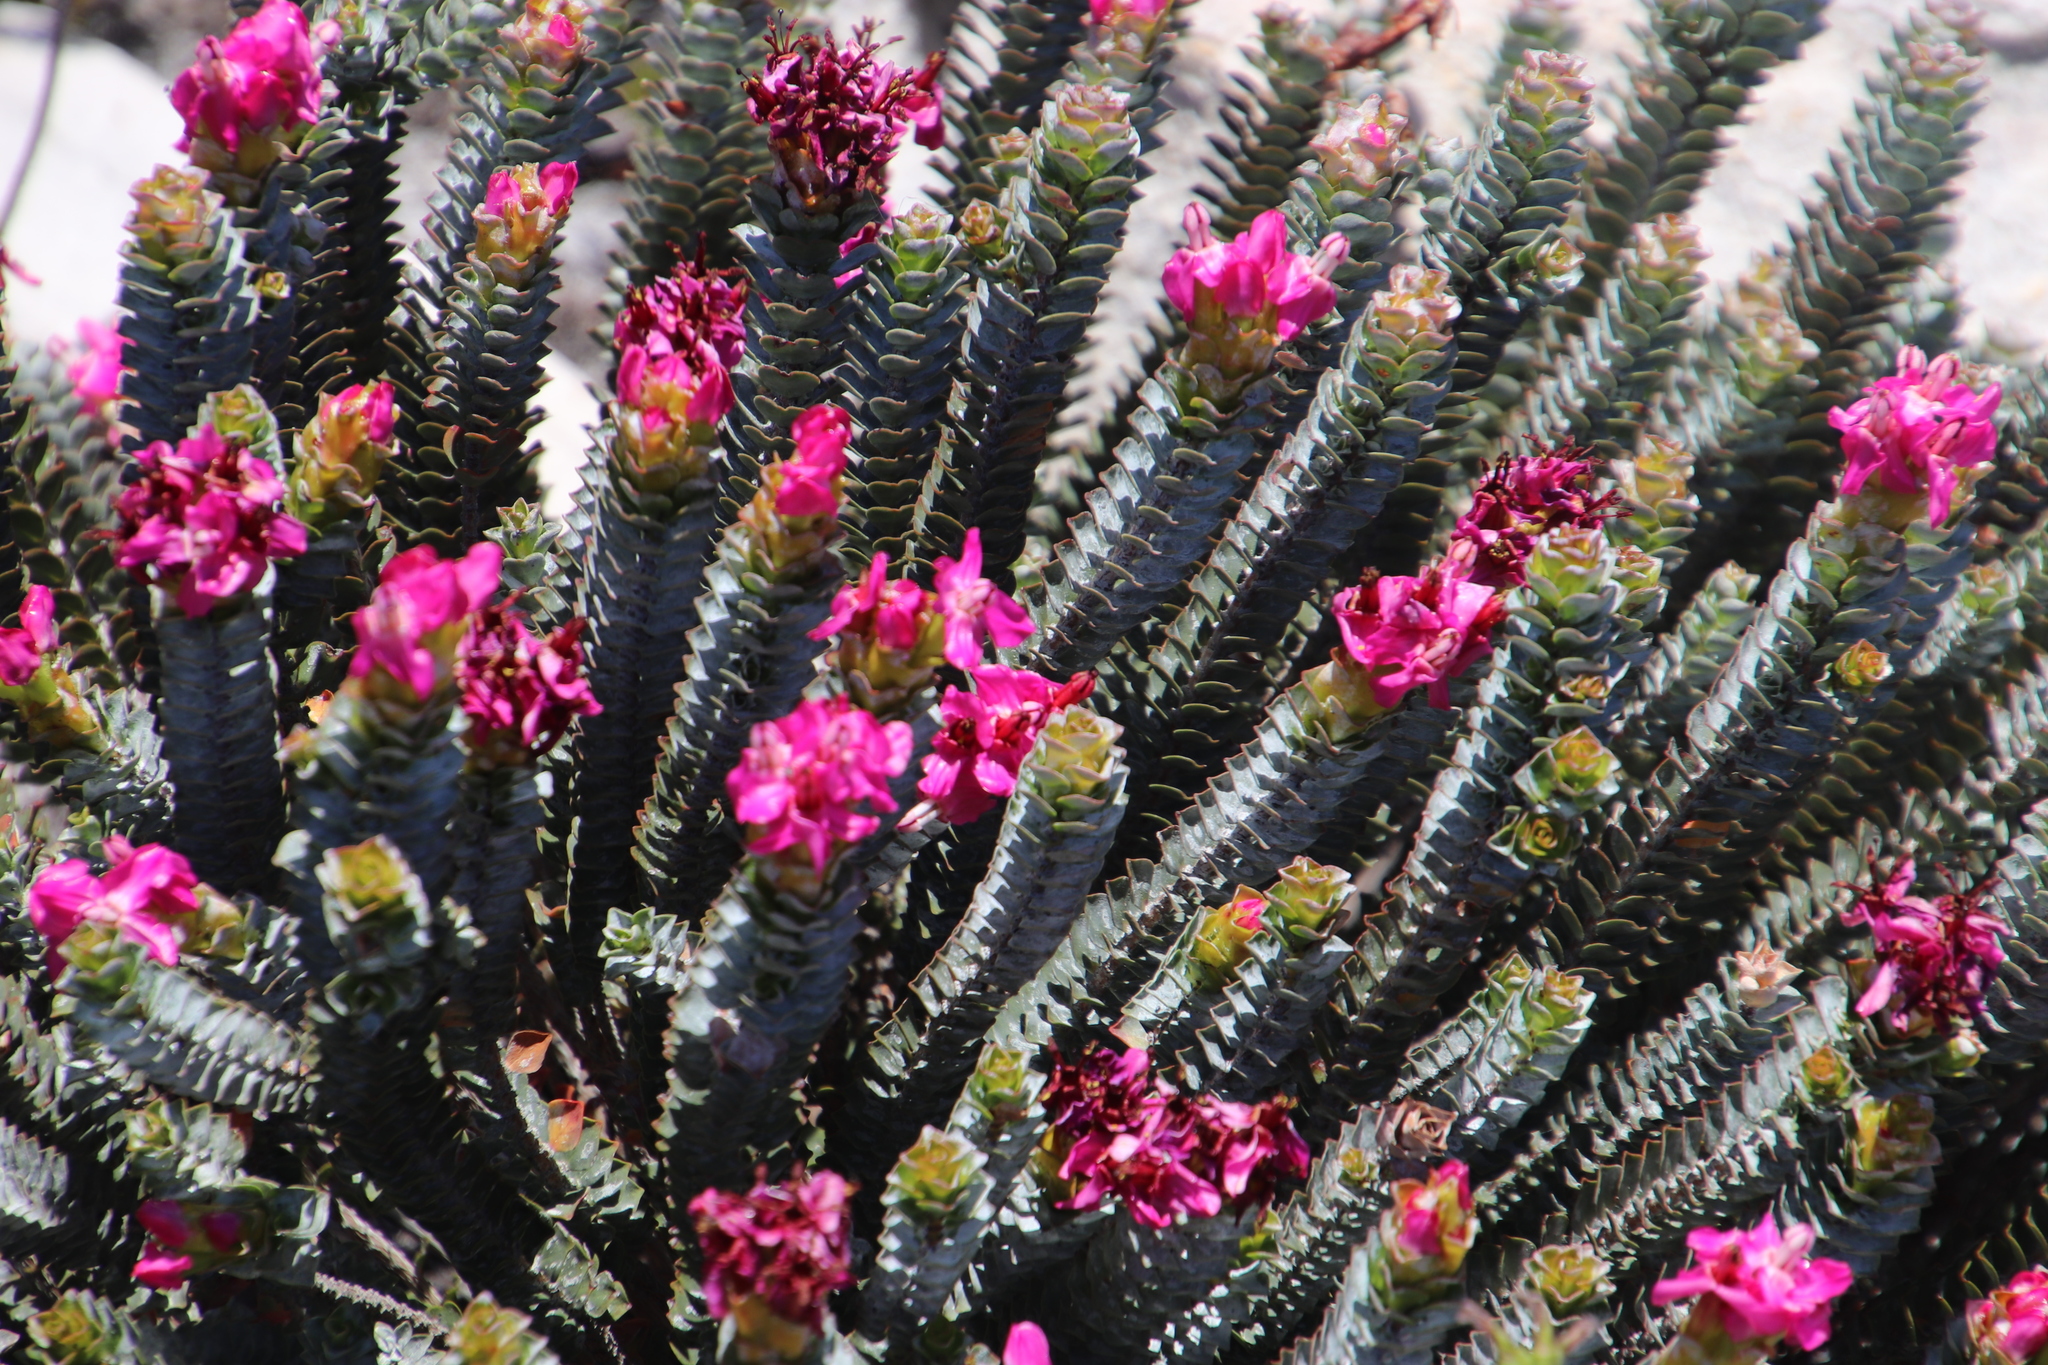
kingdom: Plantae
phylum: Tracheophyta
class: Magnoliopsida
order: Myrtales
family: Penaeaceae
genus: Saltera
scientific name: Saltera sarcocolla
